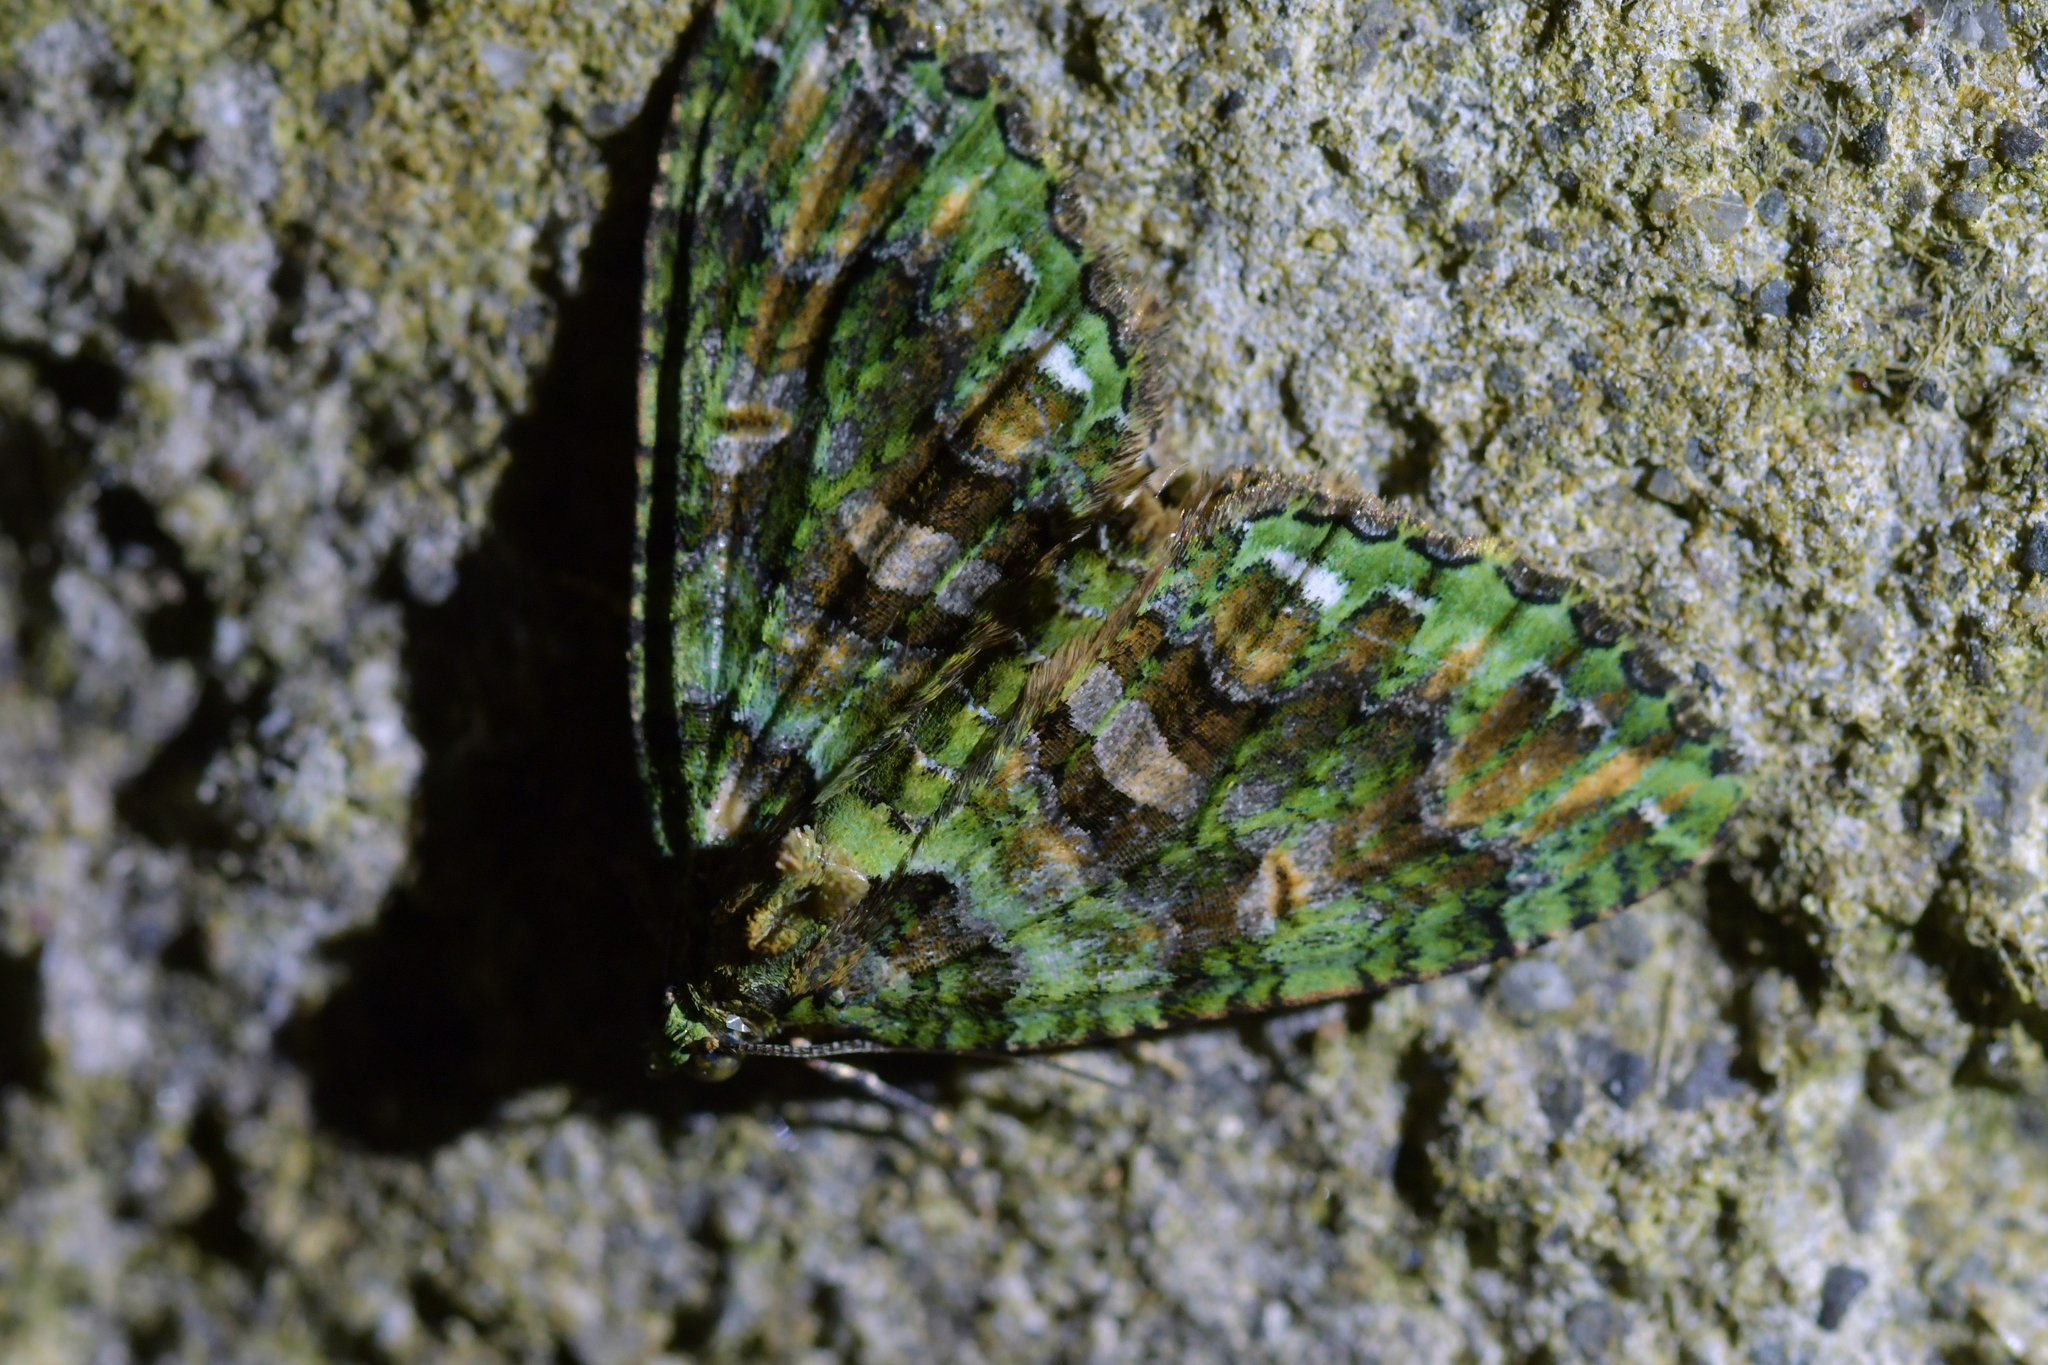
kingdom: Animalia
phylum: Arthropoda
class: Insecta
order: Lepidoptera
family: Geometridae
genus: Austrocidaria
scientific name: Austrocidaria similata
